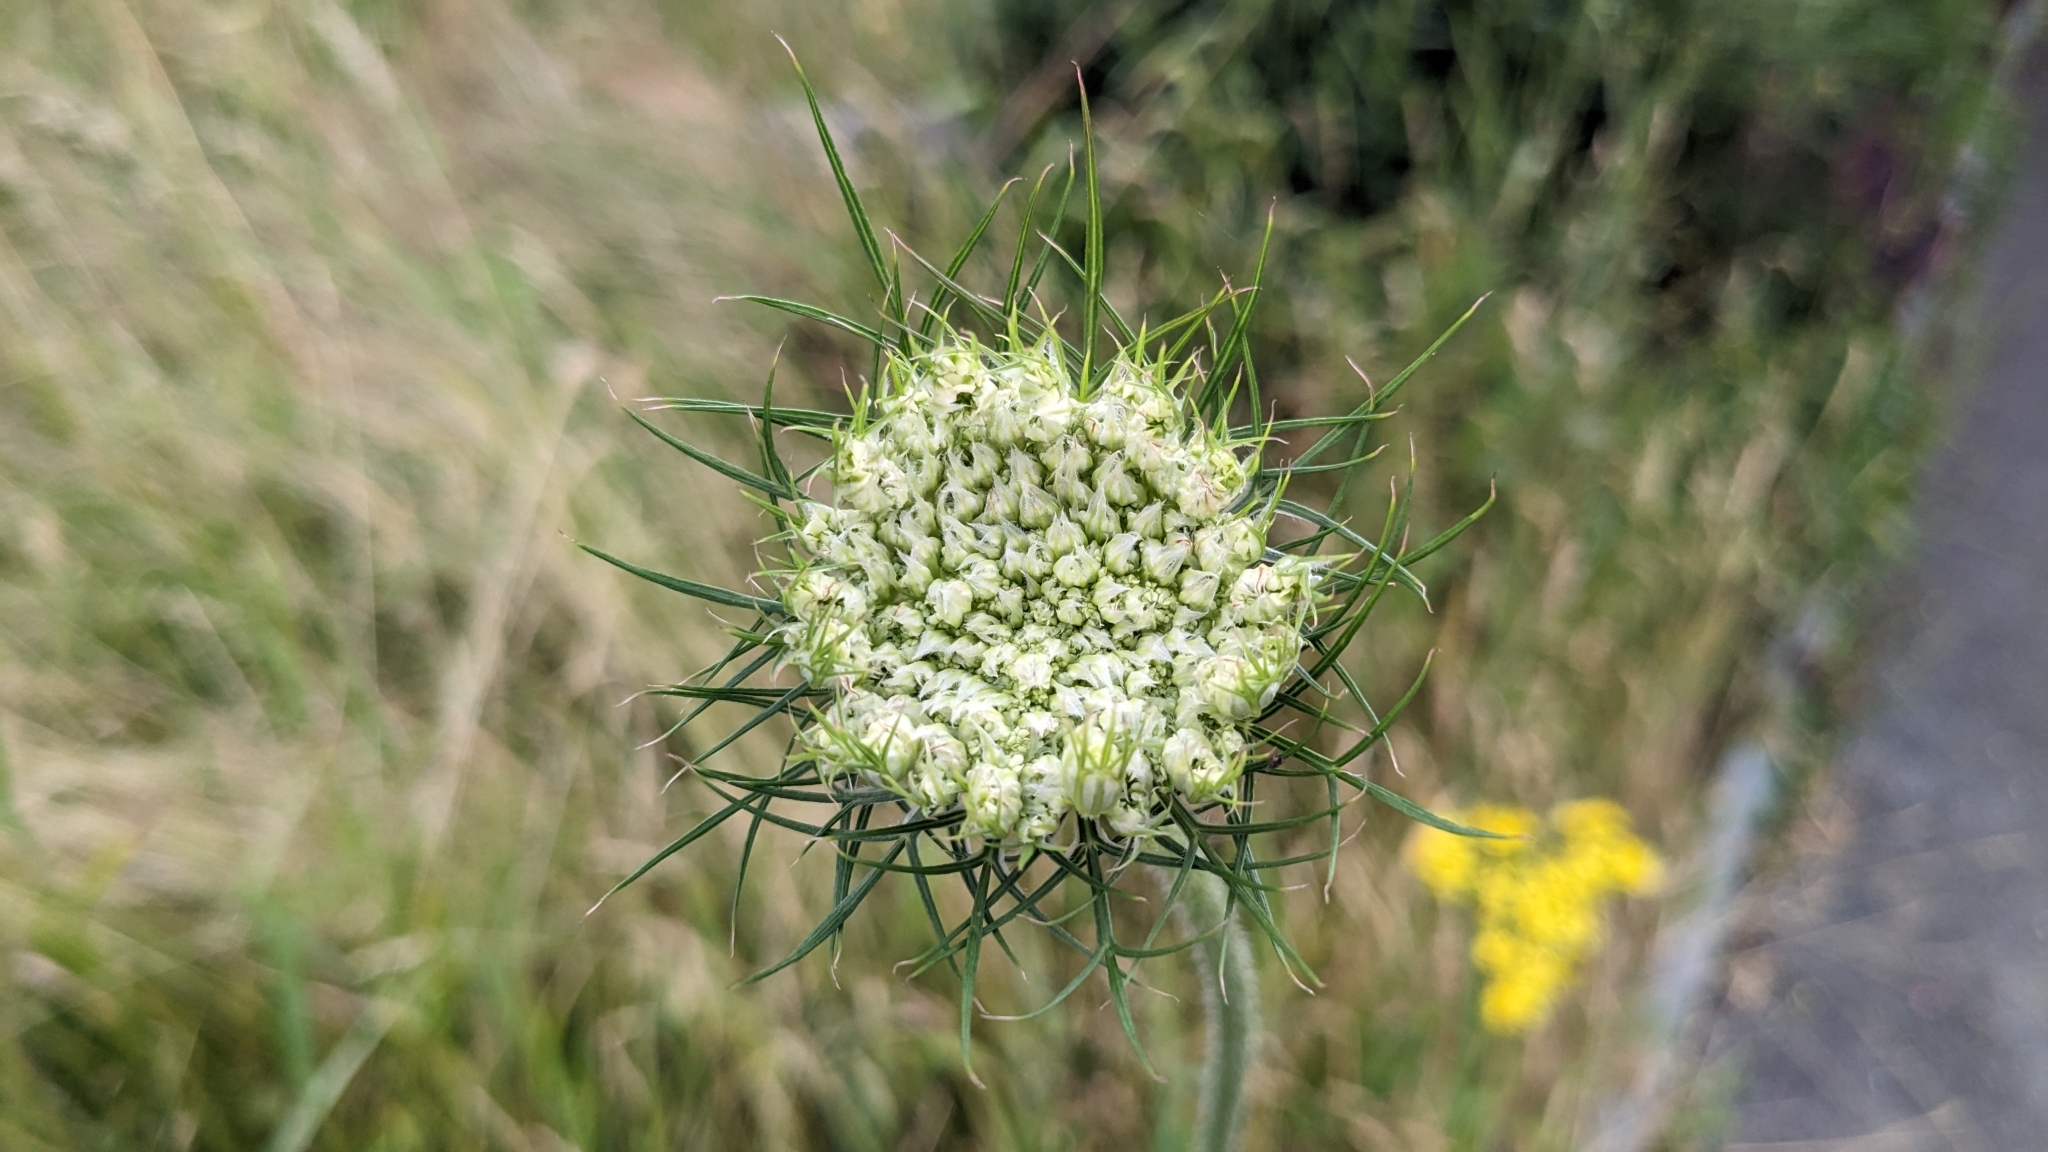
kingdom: Plantae
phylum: Tracheophyta
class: Magnoliopsida
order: Apiales
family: Apiaceae
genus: Daucus
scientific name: Daucus carota
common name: Wild carrot
